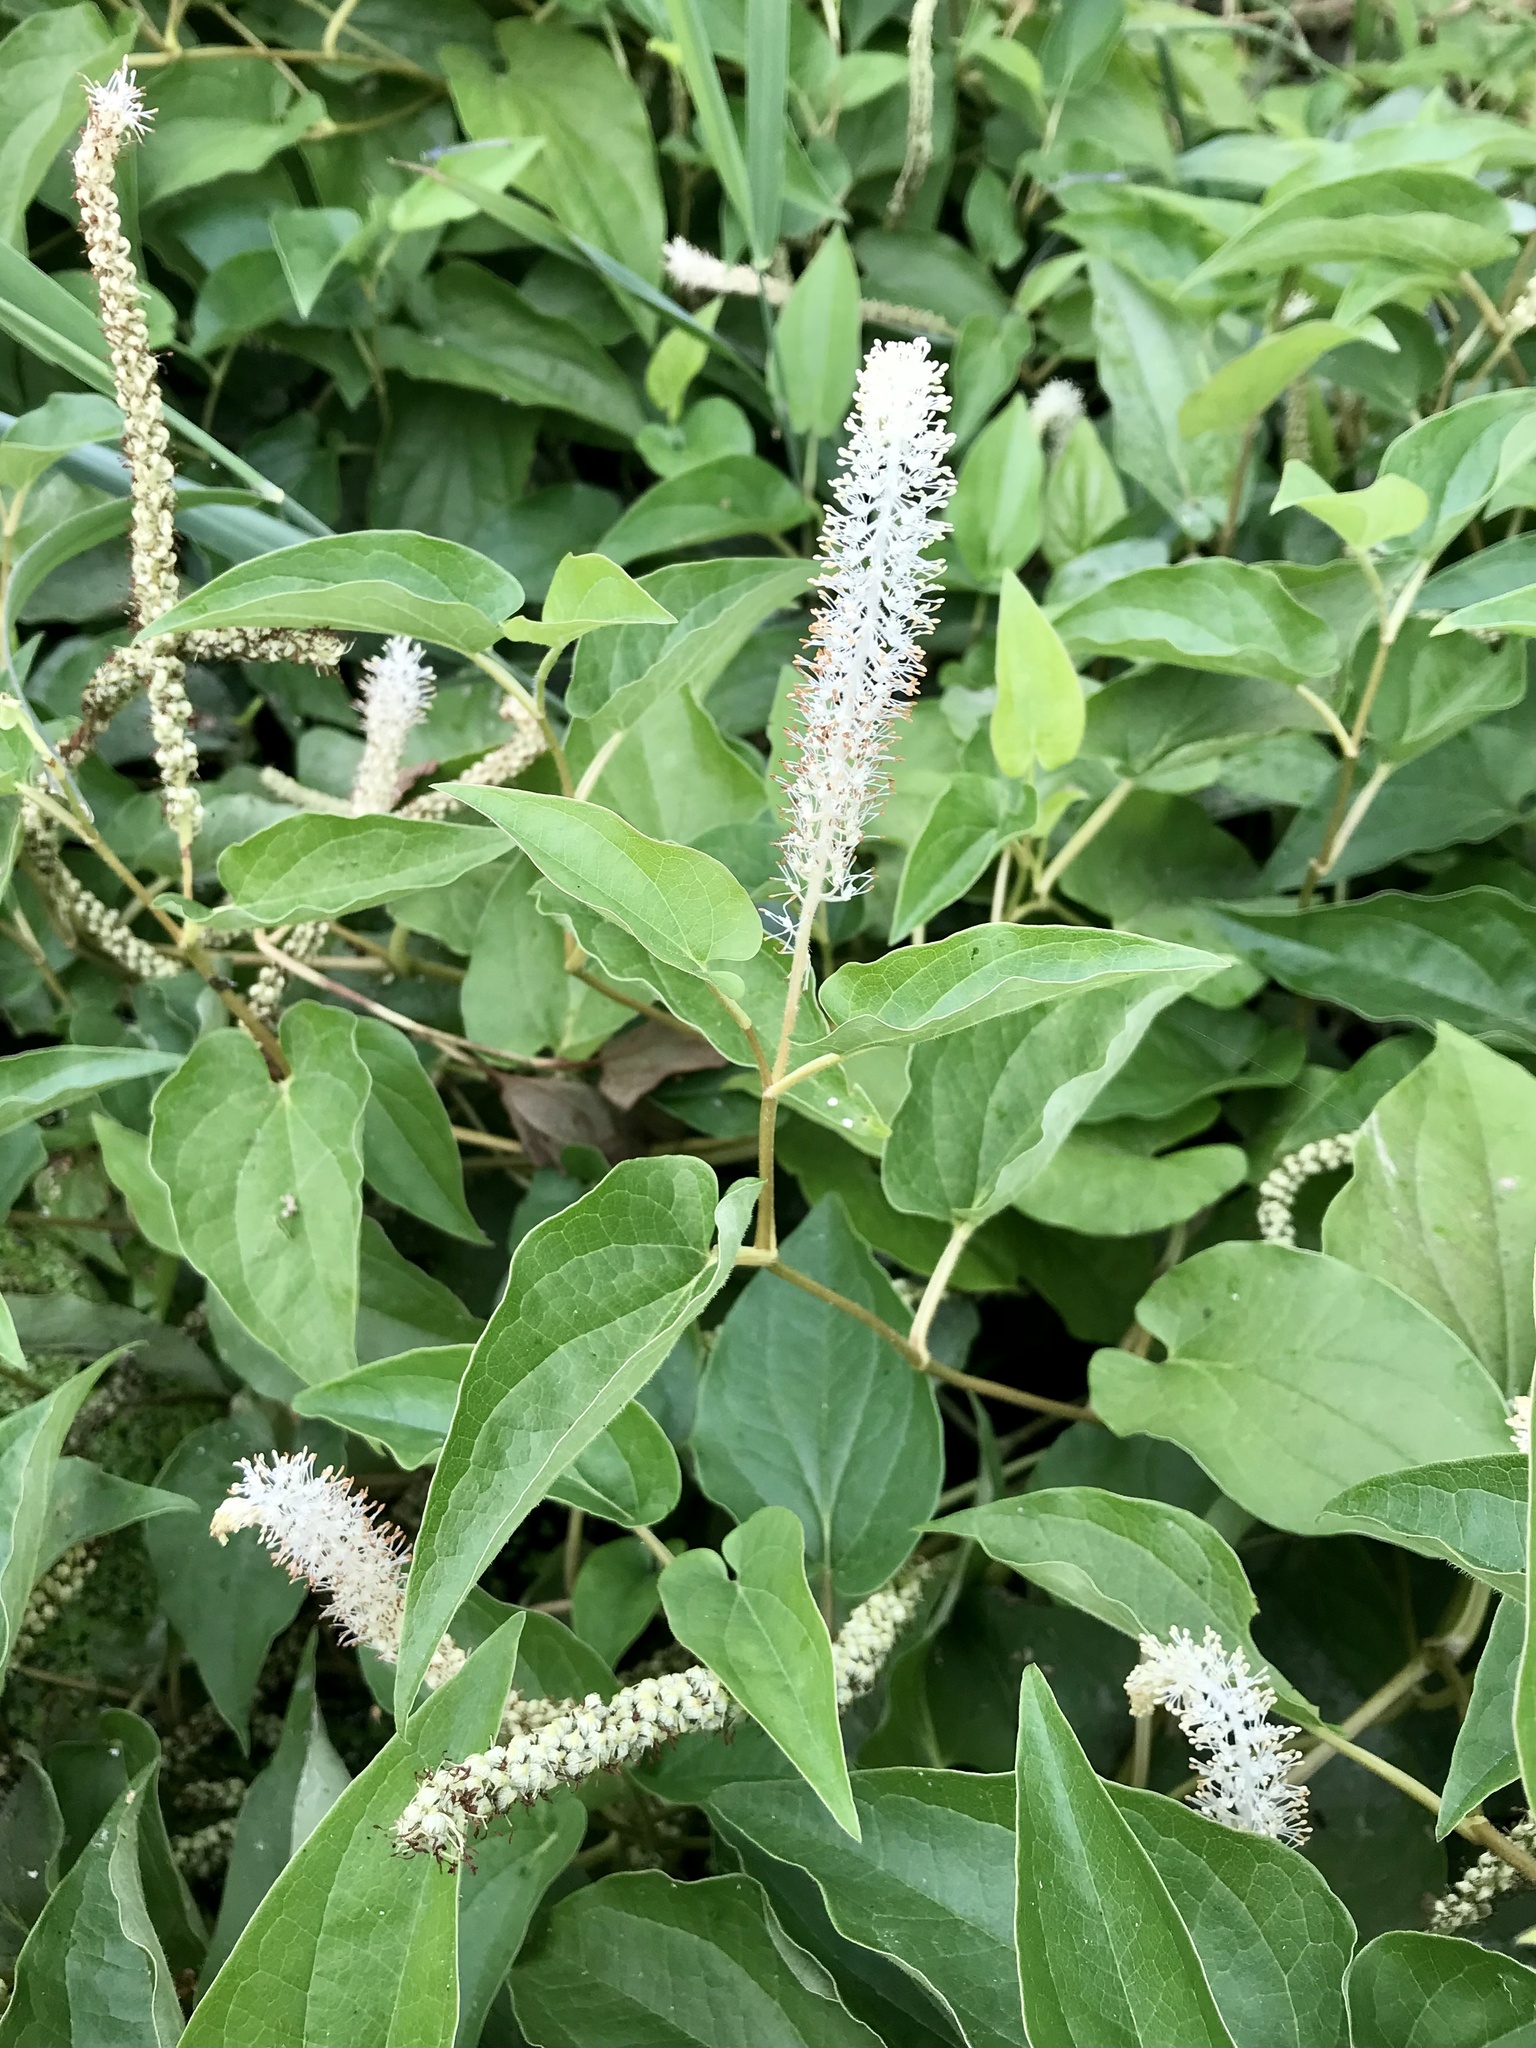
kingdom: Plantae
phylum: Tracheophyta
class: Magnoliopsida
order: Piperales
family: Saururaceae
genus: Saururus
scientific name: Saururus cernuus
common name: Lizard's-tail
